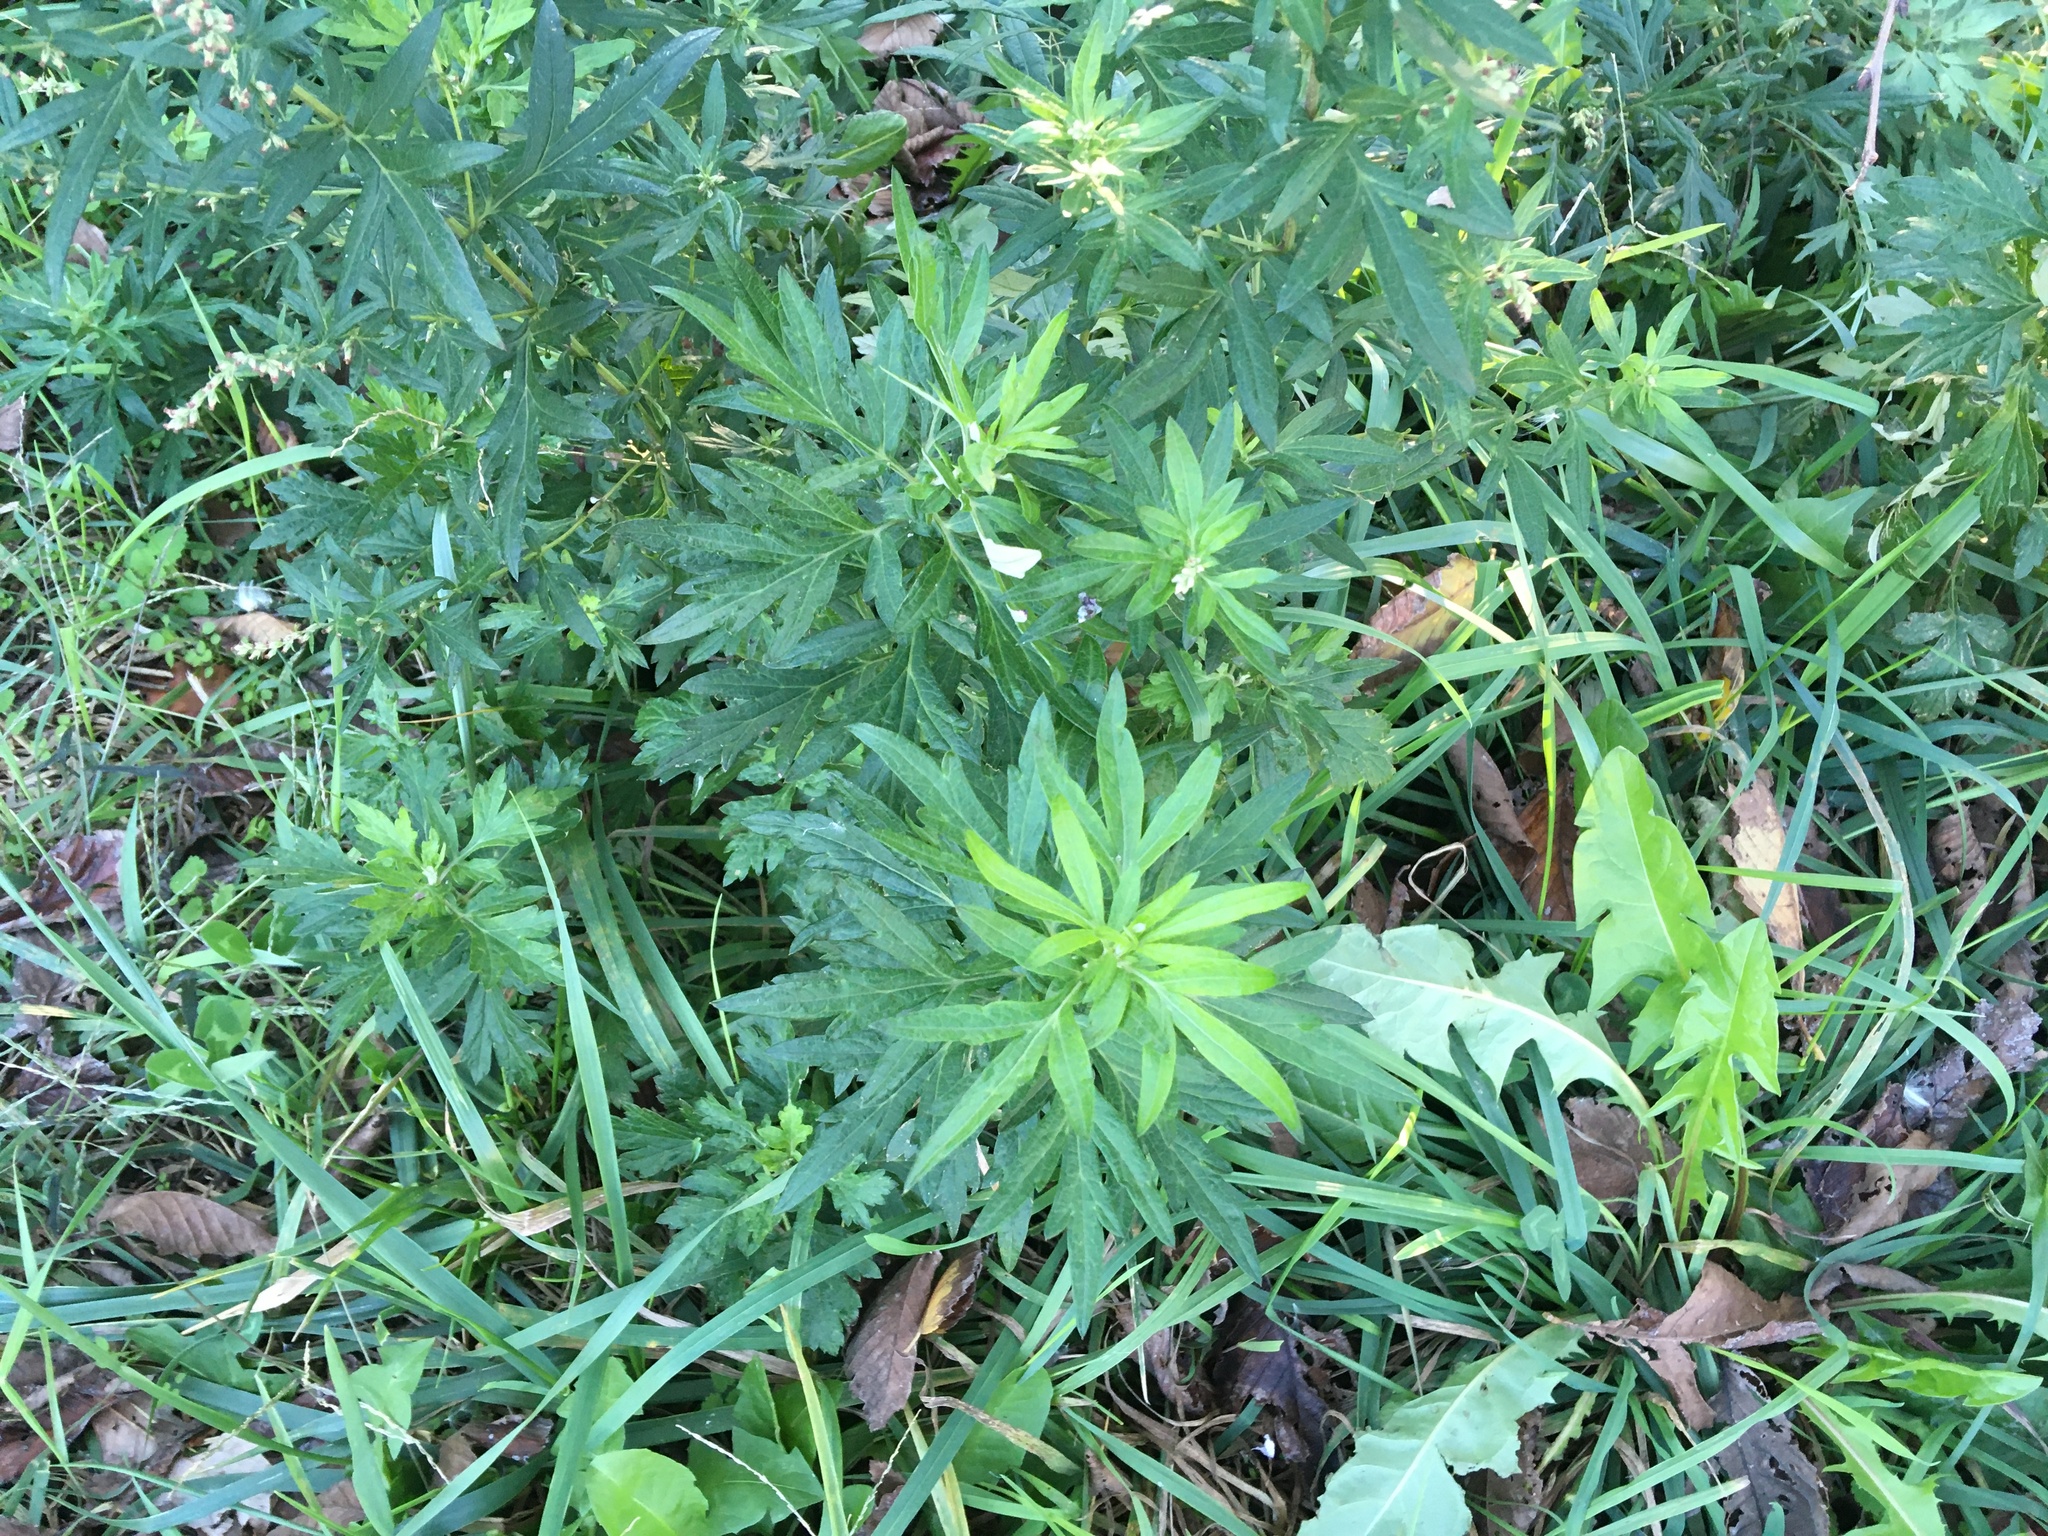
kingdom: Plantae
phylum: Tracheophyta
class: Magnoliopsida
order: Asterales
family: Asteraceae
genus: Artemisia
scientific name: Artemisia vulgaris
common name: Mugwort
